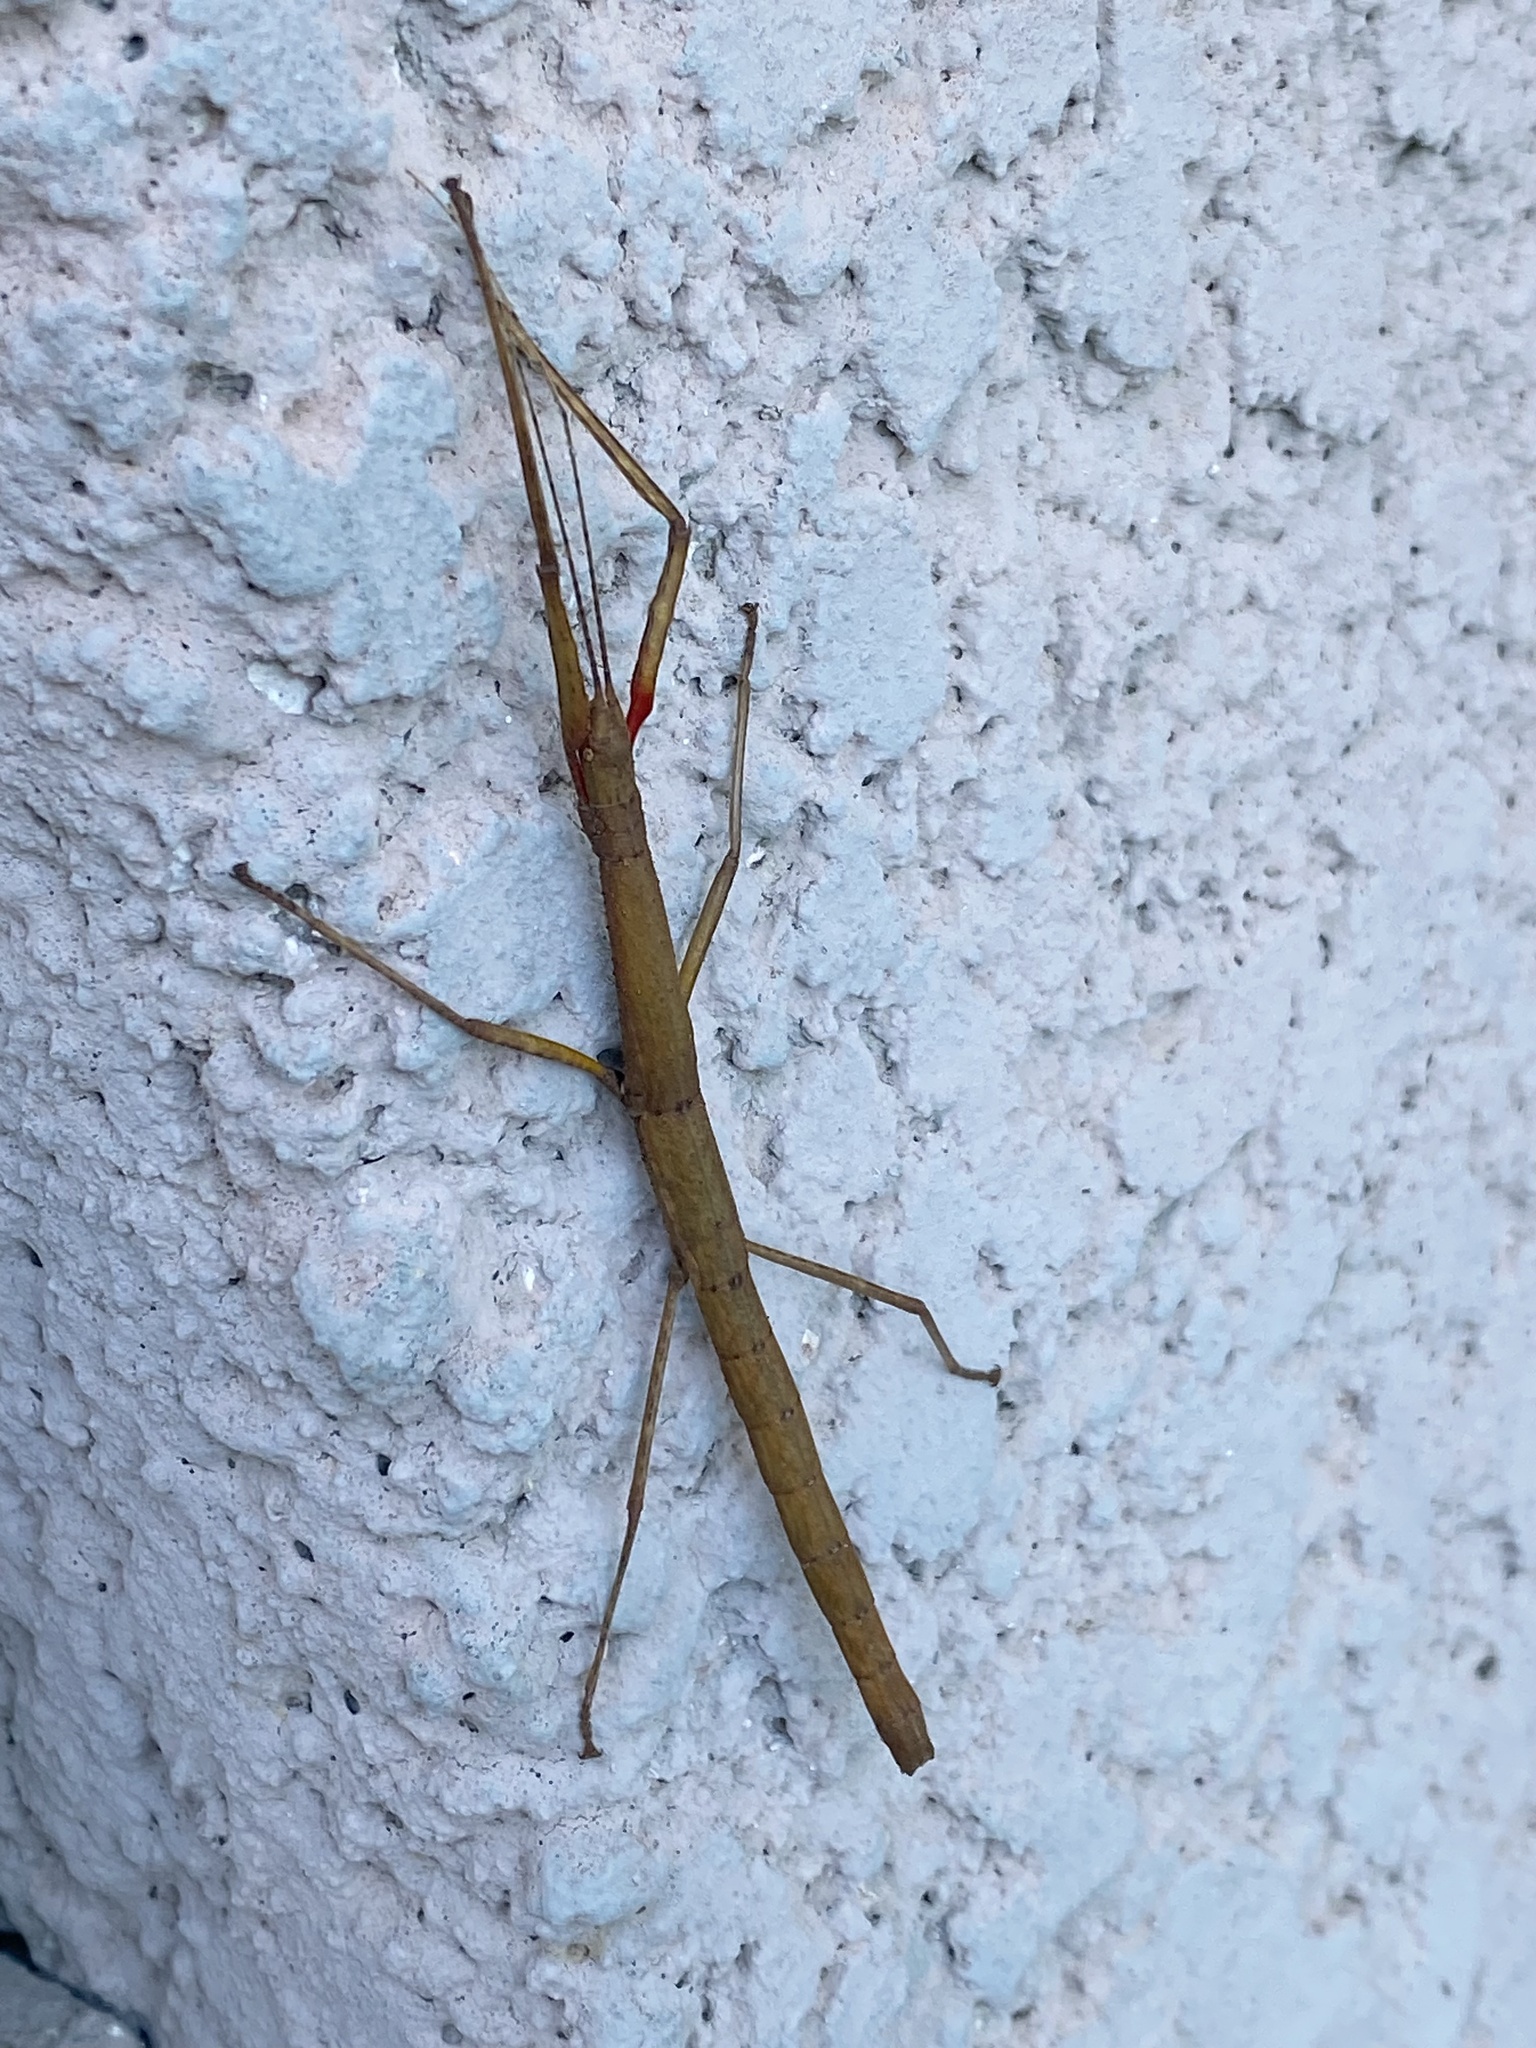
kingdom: Animalia
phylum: Arthropoda
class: Insecta
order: Phasmida
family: Lonchodidae
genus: Carausius
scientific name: Carausius morosus
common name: Indian stick insect
